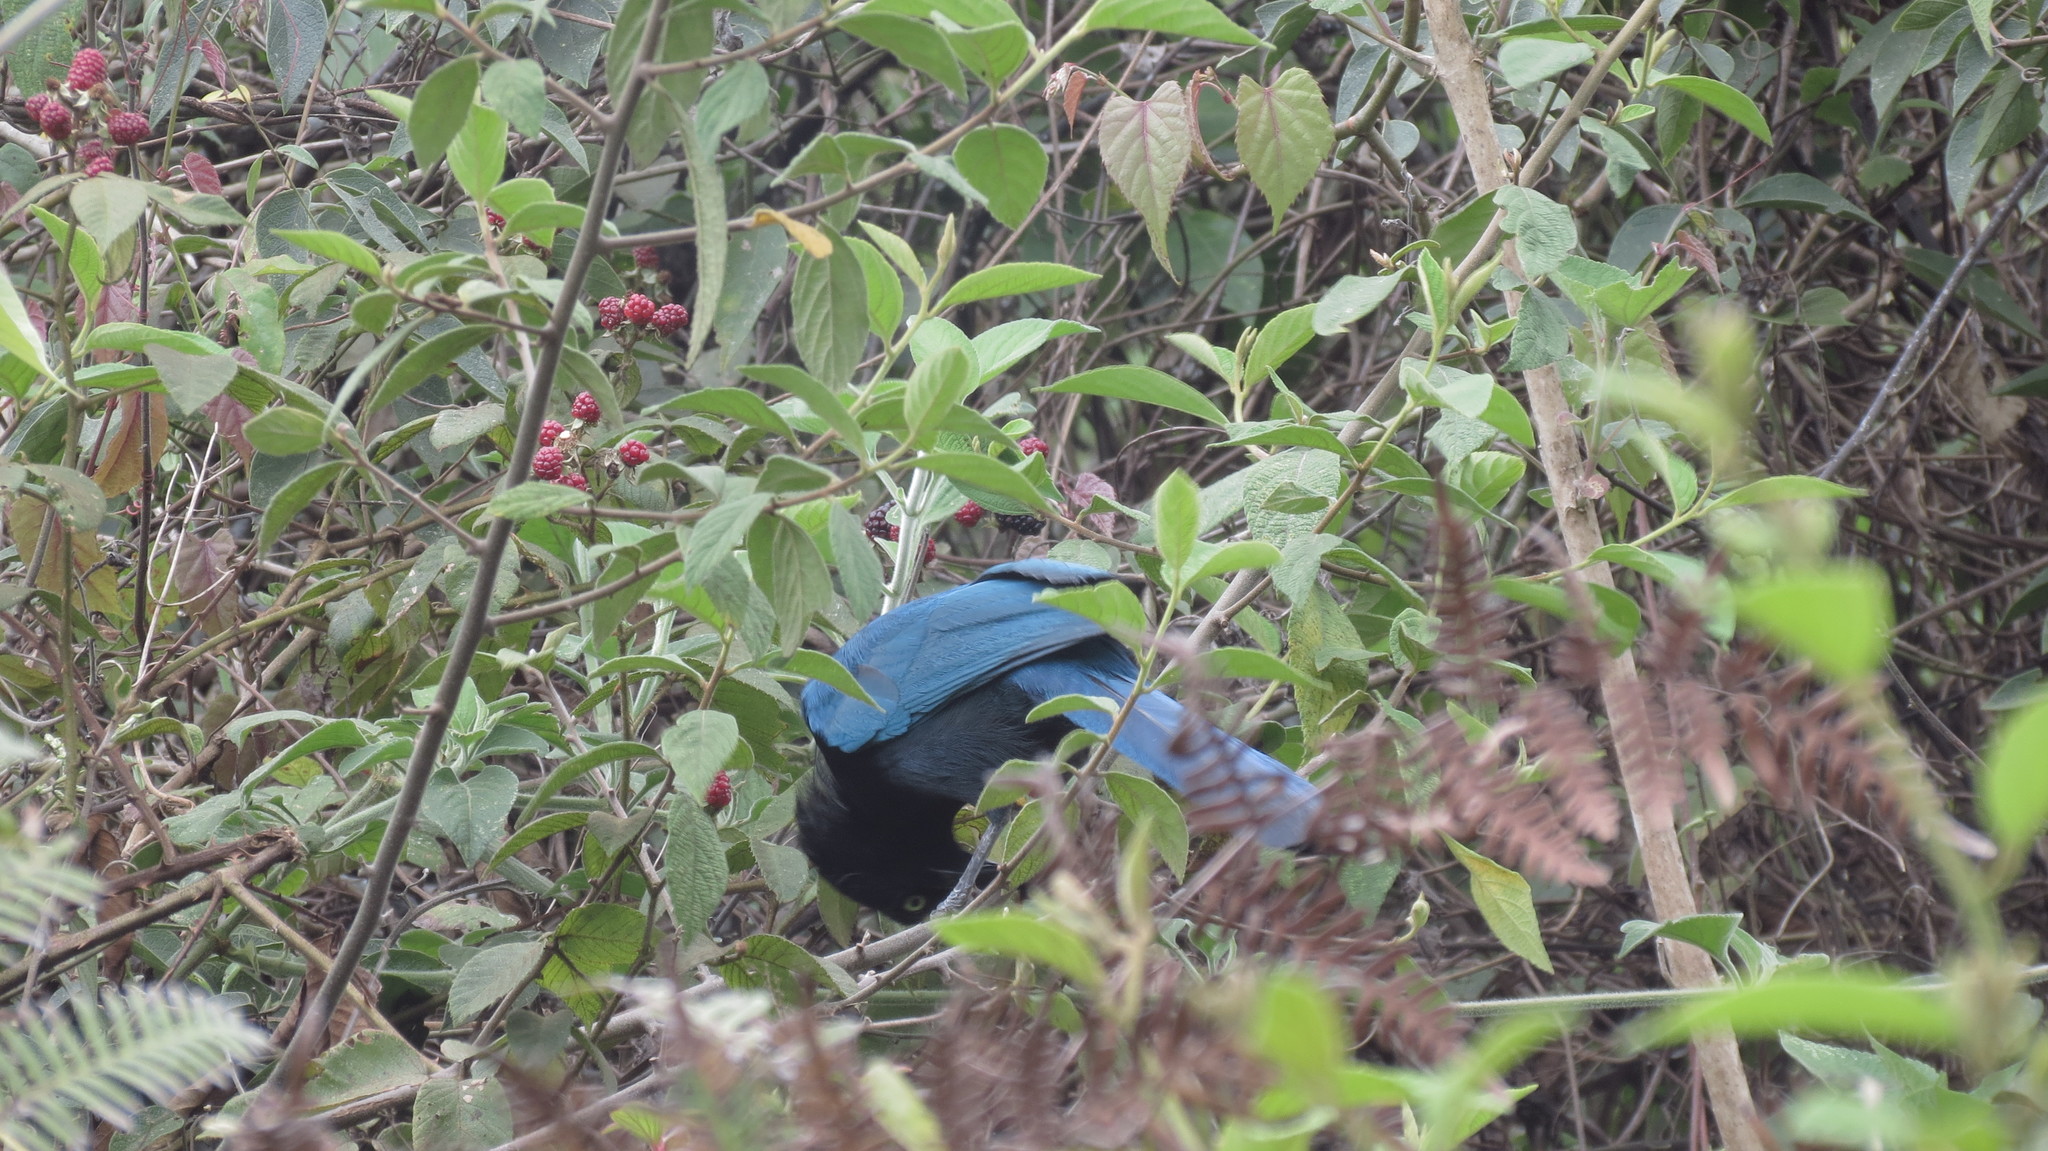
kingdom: Animalia
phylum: Chordata
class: Aves
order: Passeriformes
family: Corvidae
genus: Cyanocorax
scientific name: Cyanocorax melanocyaneus
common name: Bushy-crested jay
